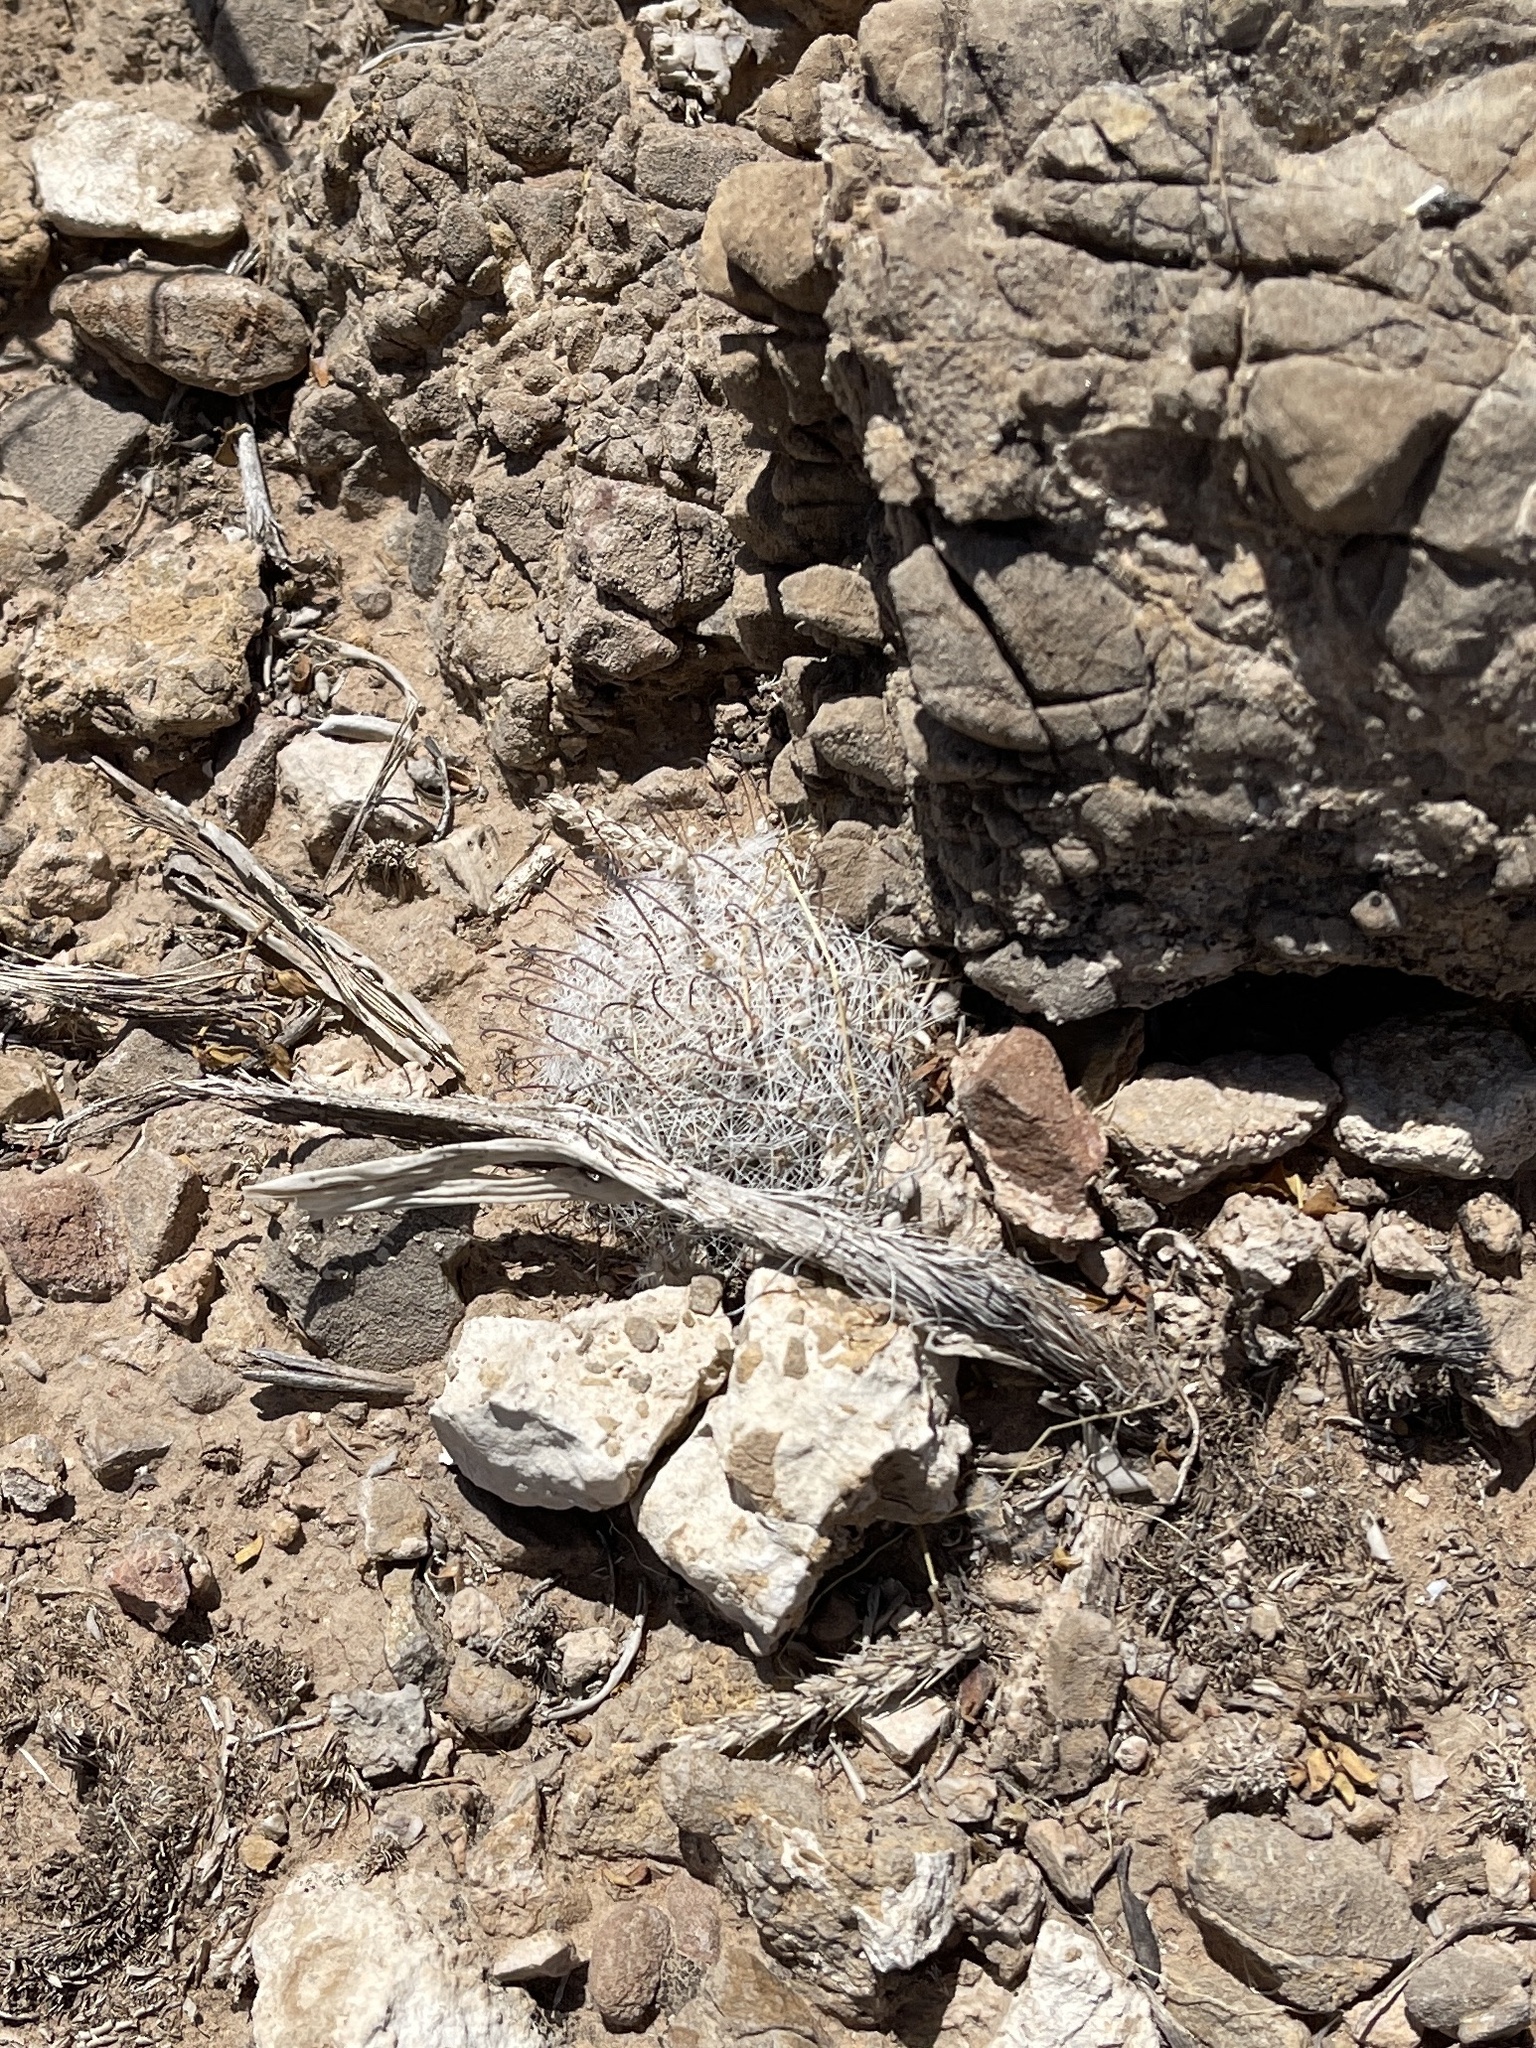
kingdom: Plantae
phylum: Tracheophyta
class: Magnoliopsida
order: Caryophyllales
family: Cactaceae
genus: Cochemiea
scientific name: Cochemiea grahamii
